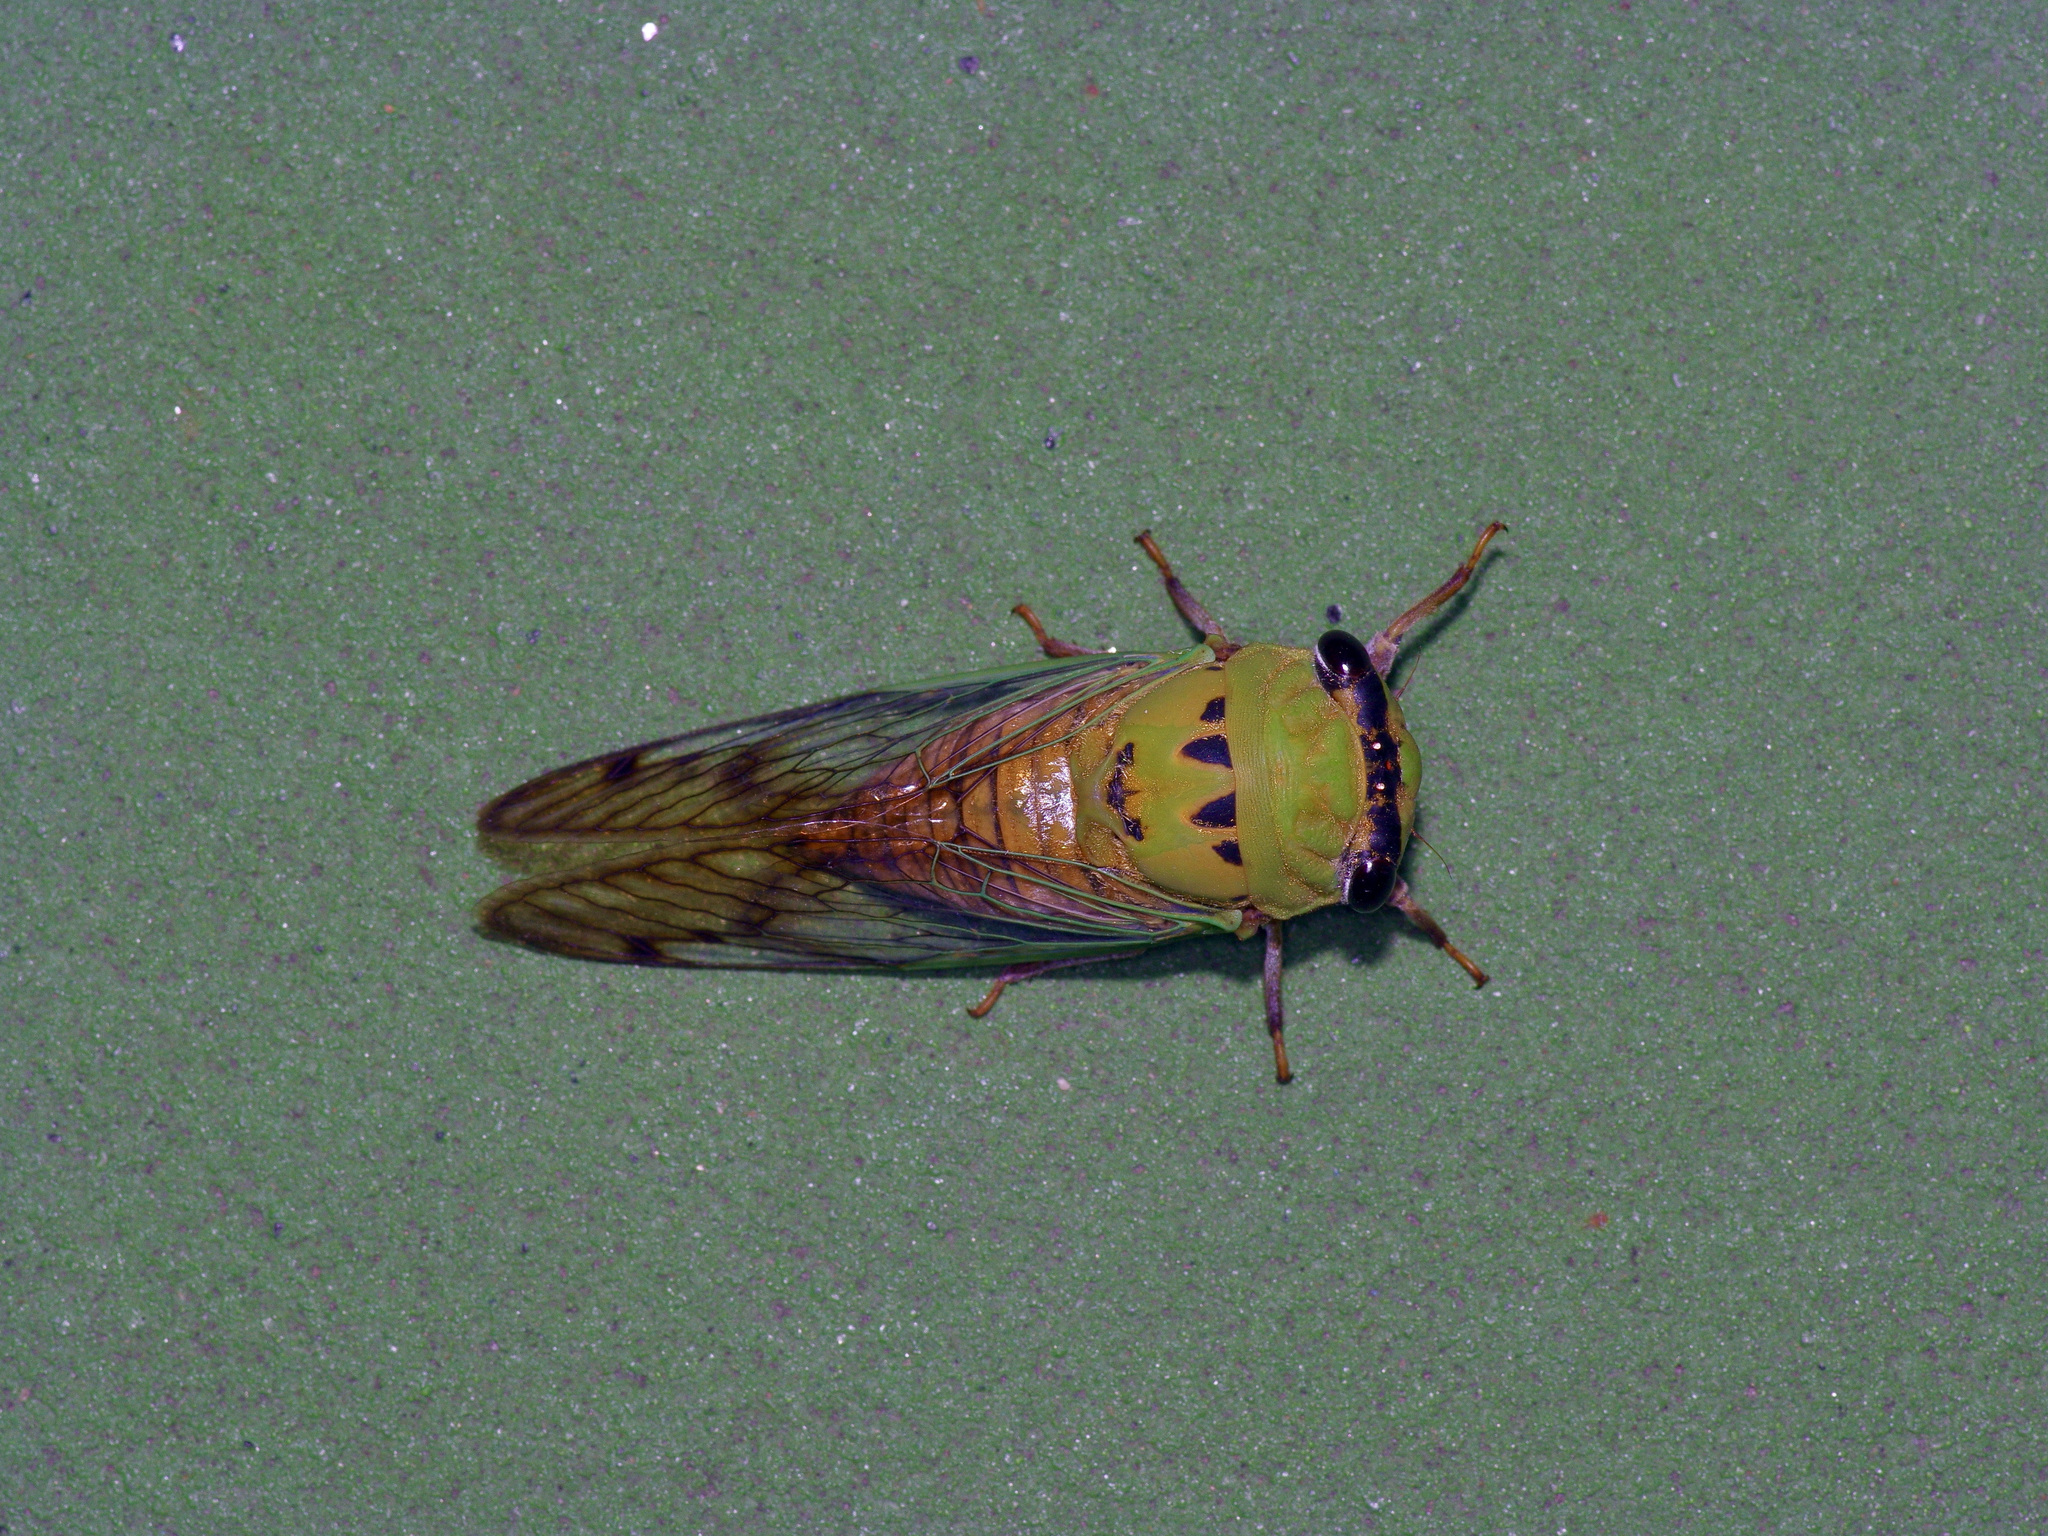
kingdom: Animalia
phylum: Arthropoda
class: Insecta
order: Hemiptera
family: Cicadidae
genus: Neotibicen
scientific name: Neotibicen superbus
